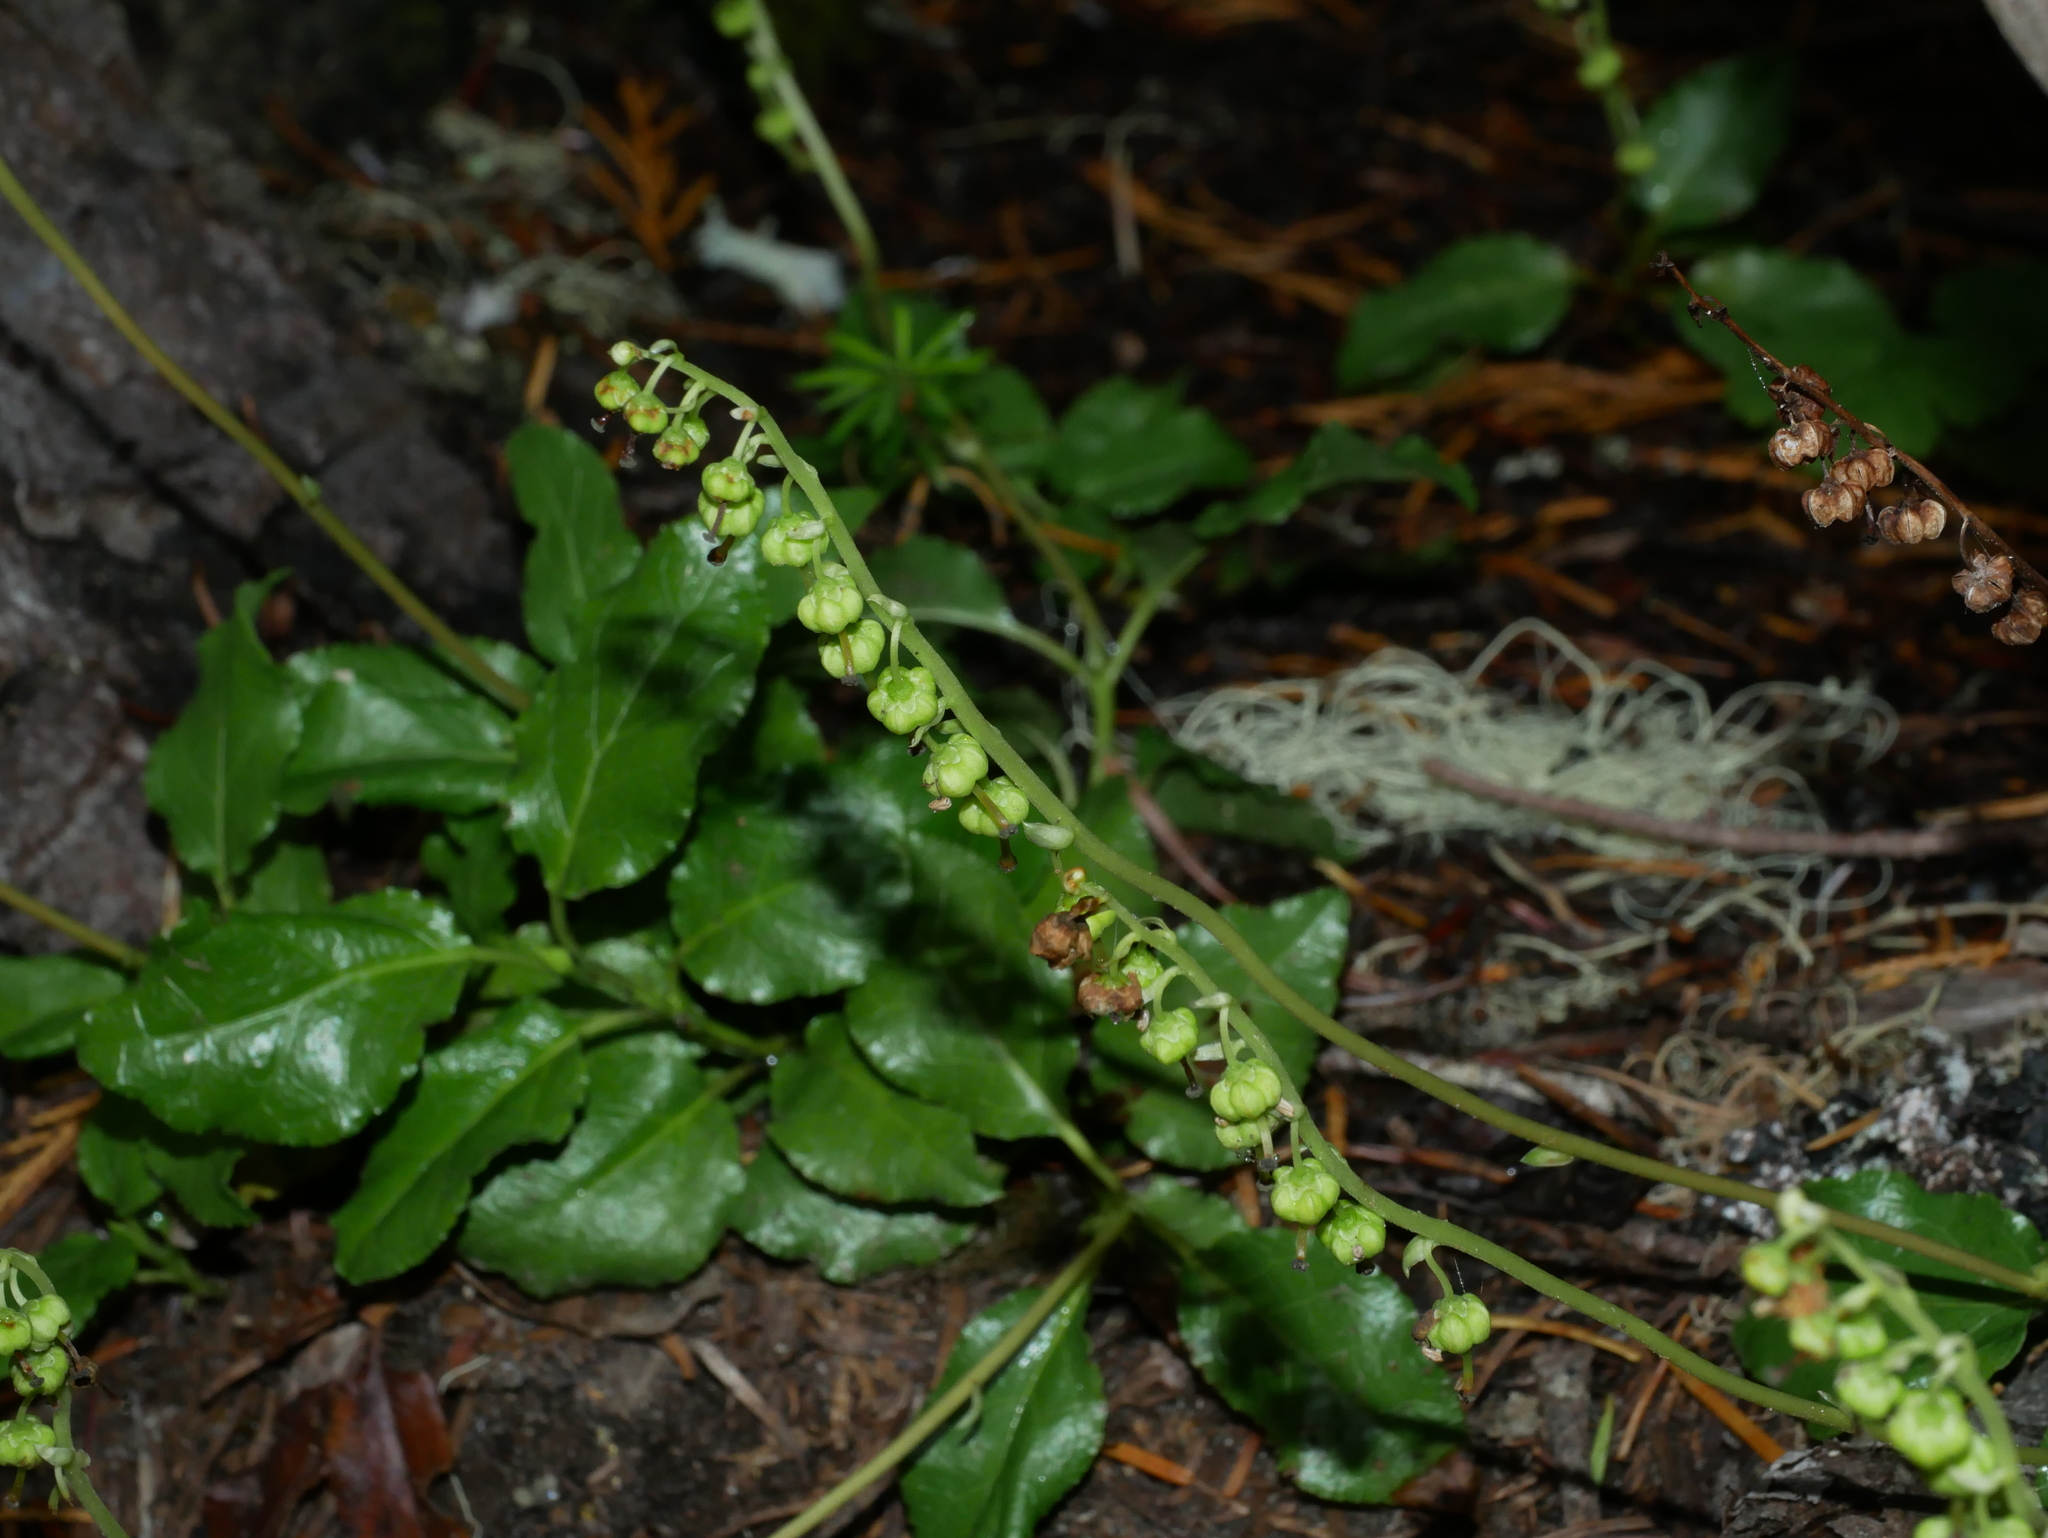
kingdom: Plantae
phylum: Tracheophyta
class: Magnoliopsida
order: Ericales
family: Ericaceae
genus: Orthilia
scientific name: Orthilia secunda
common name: One-sided orthilia
